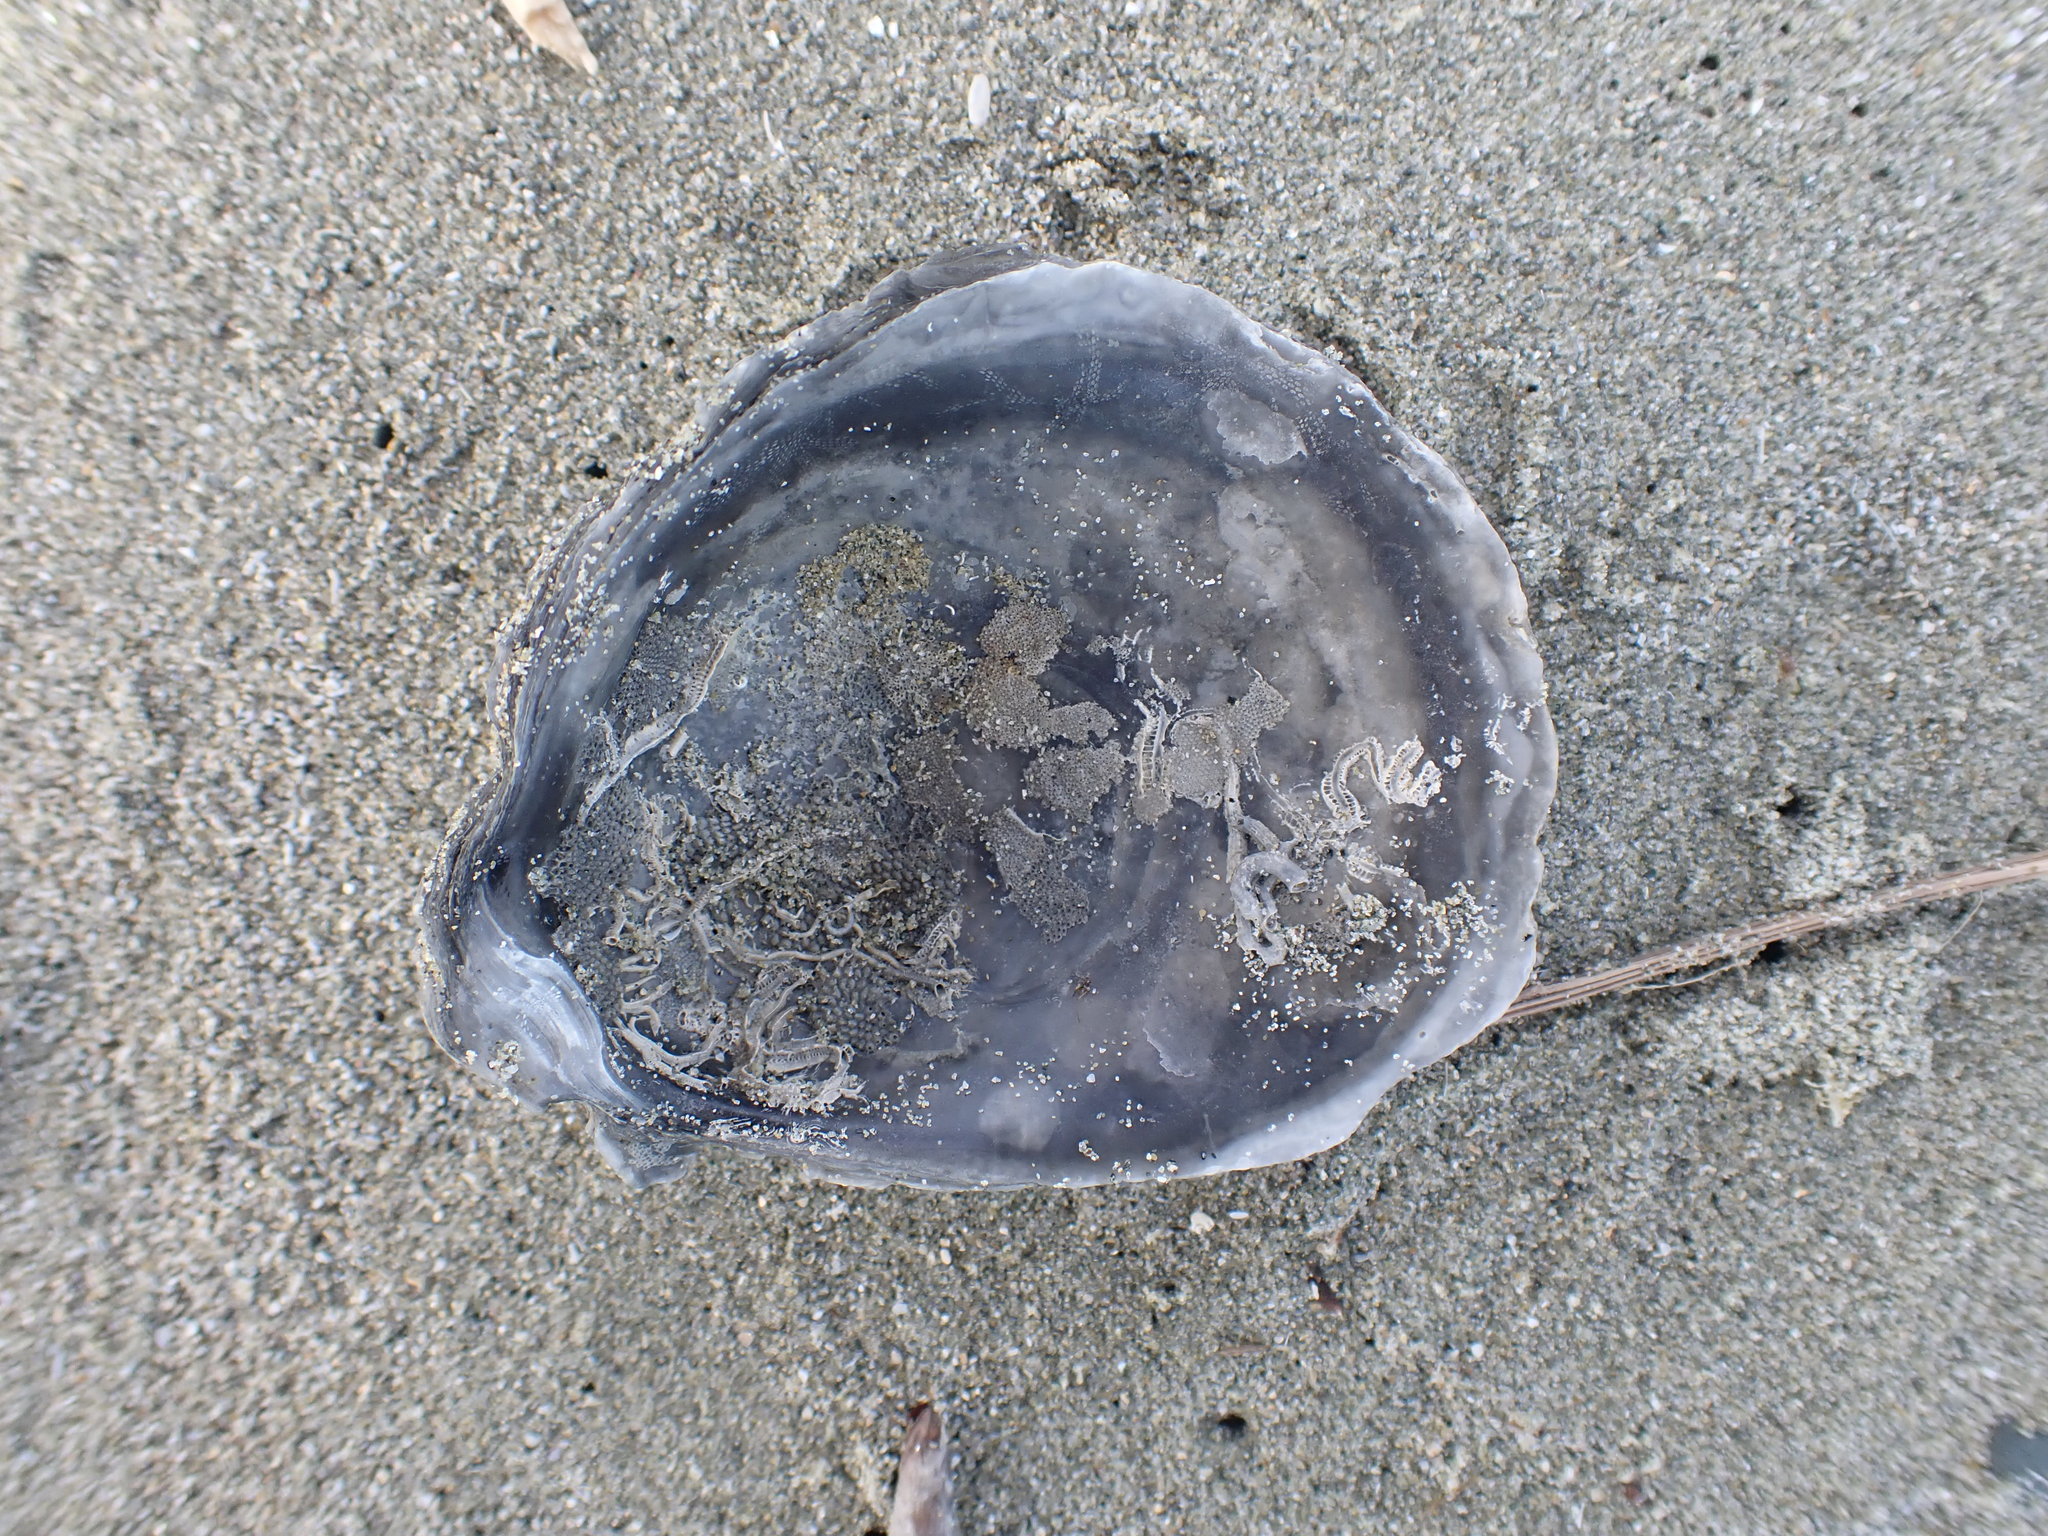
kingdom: Animalia
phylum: Mollusca
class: Bivalvia
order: Ostreida
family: Ostreidae
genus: Ostrea
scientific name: Ostrea chilensis
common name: Chilean oyster
